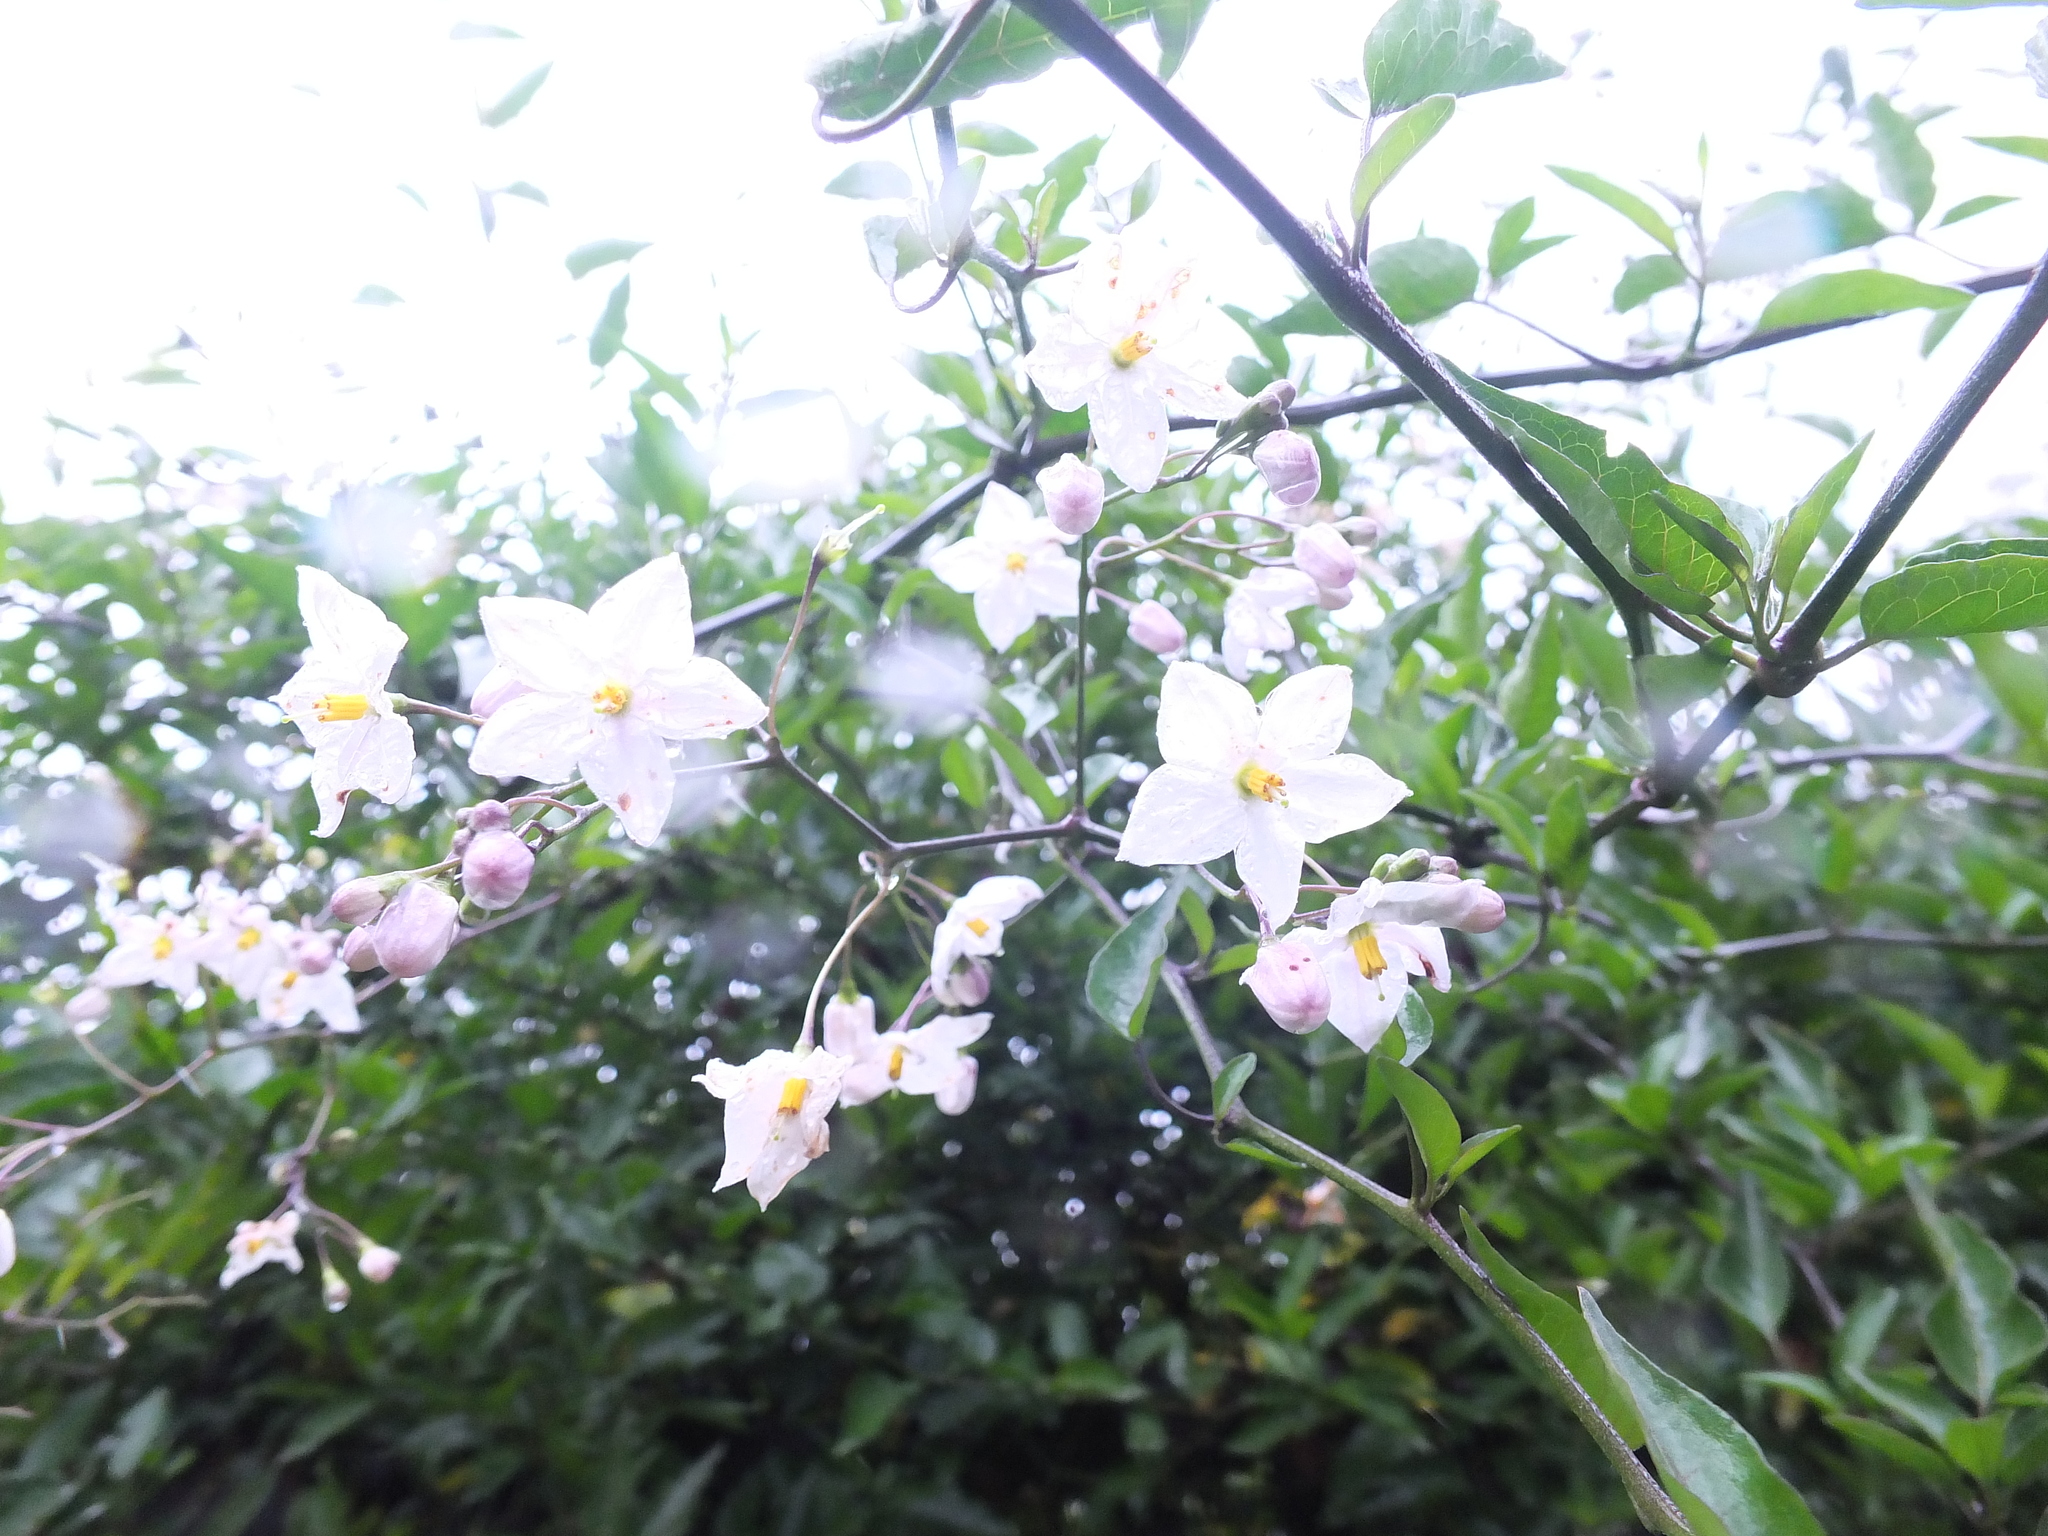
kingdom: Plantae
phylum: Tracheophyta
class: Magnoliopsida
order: Solanales
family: Solanaceae
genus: Solanum
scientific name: Solanum laxum
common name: Nightshade
